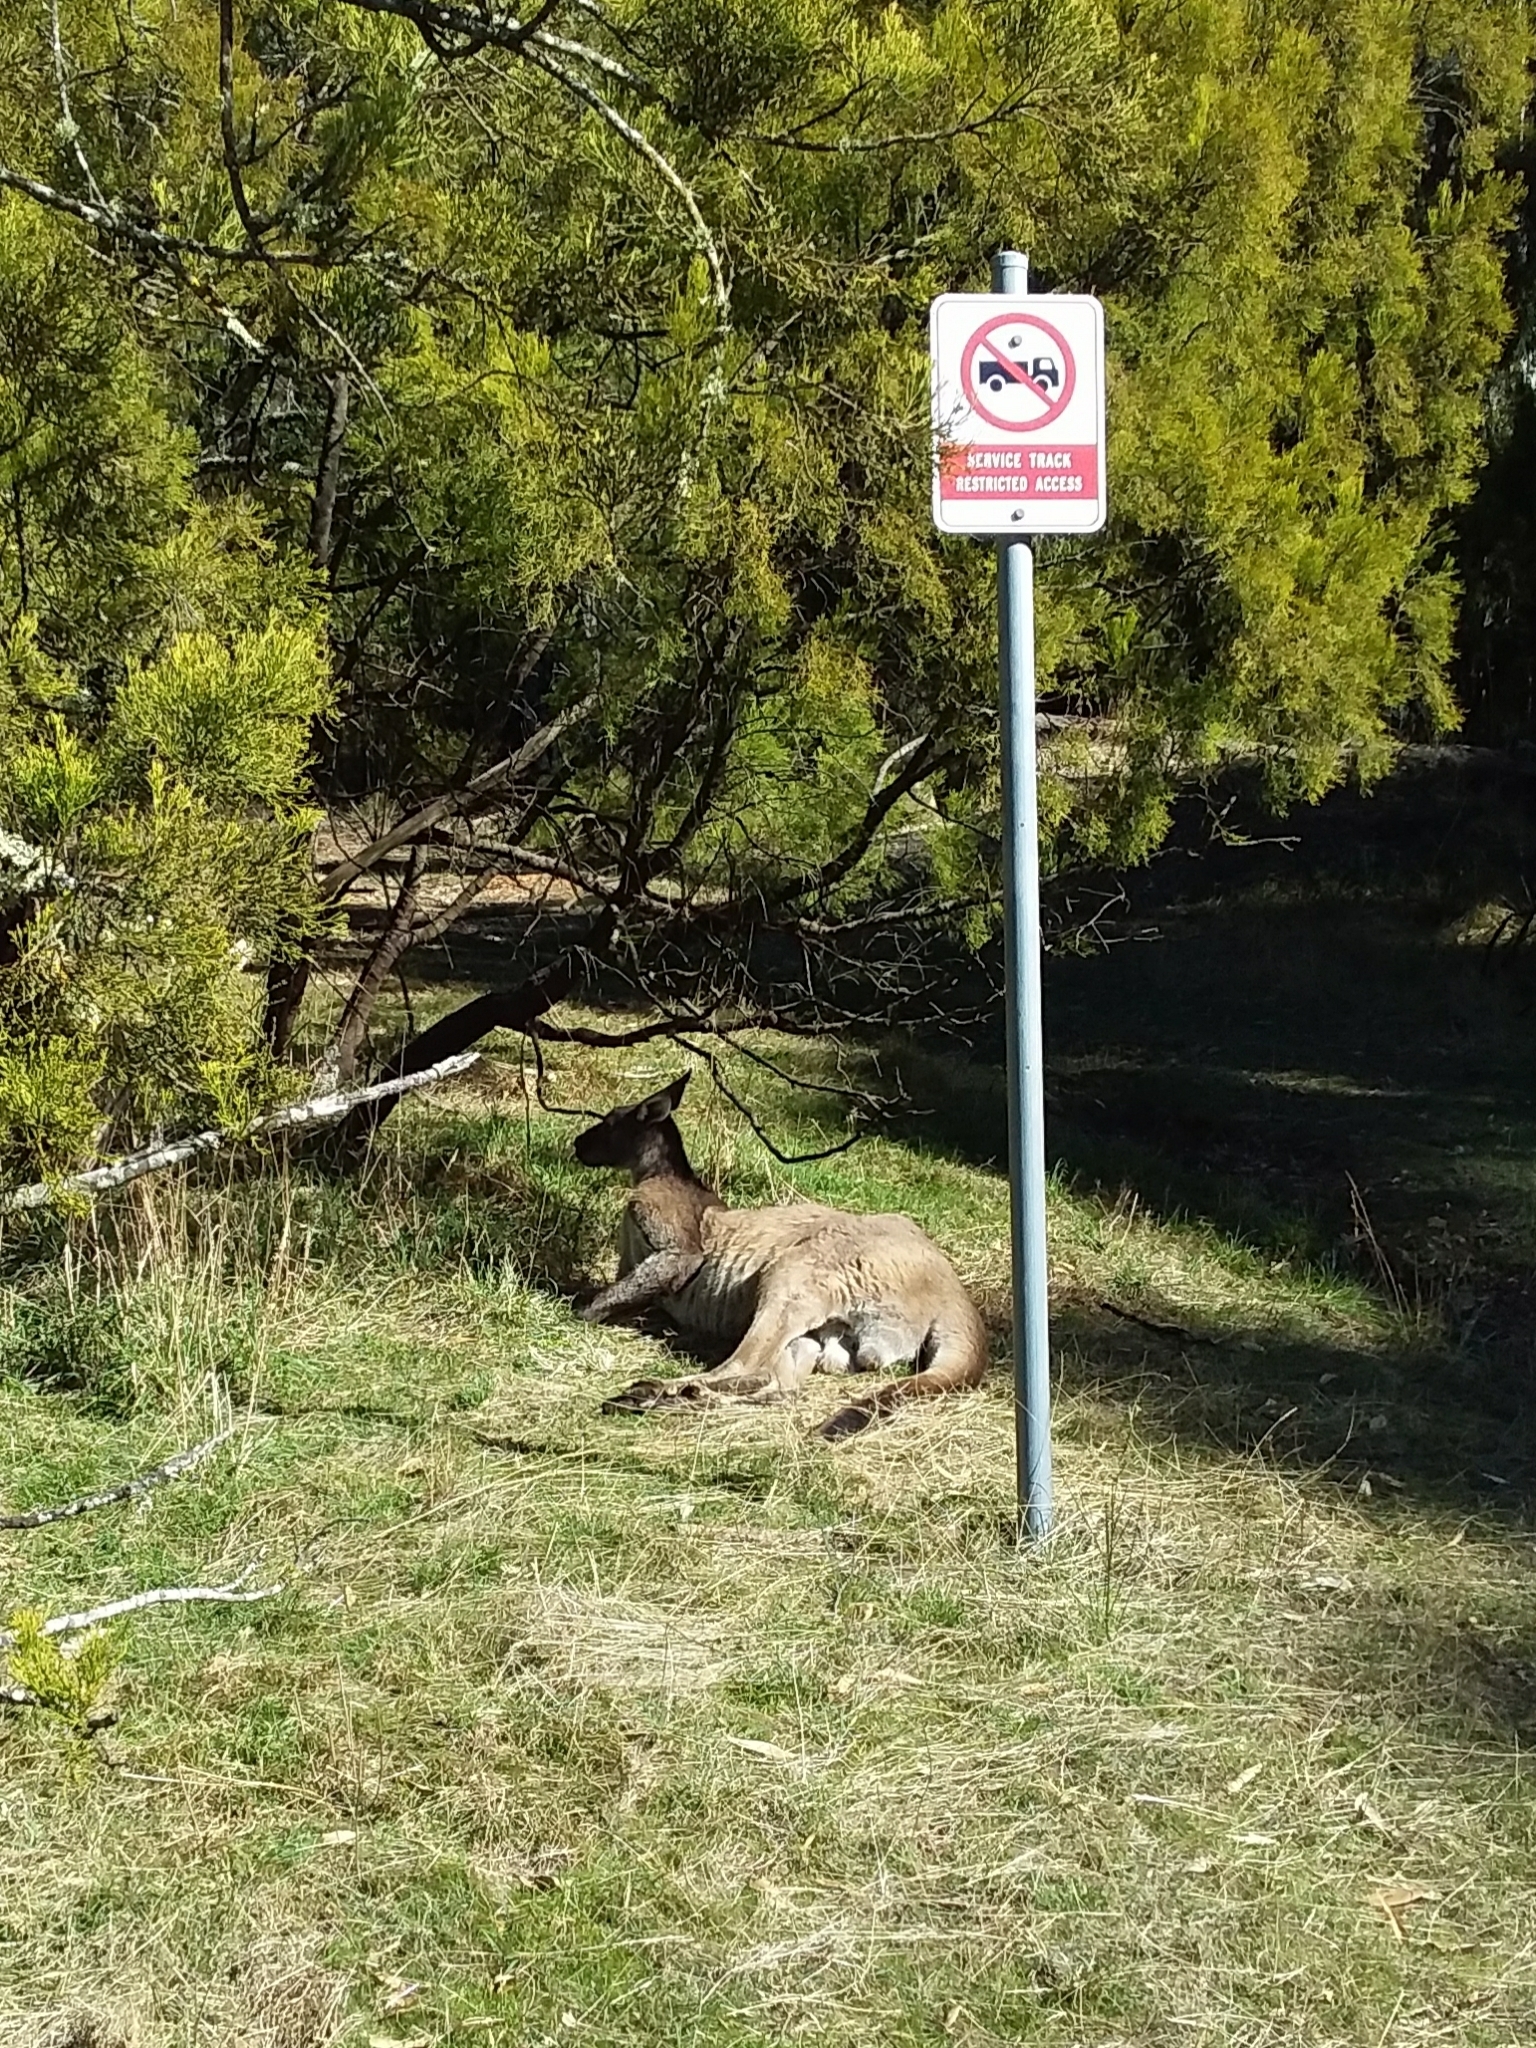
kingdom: Animalia
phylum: Chordata
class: Mammalia
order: Diprotodontia
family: Macropodidae
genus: Macropus
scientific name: Macropus fuliginosus
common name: Western grey kangaroo
